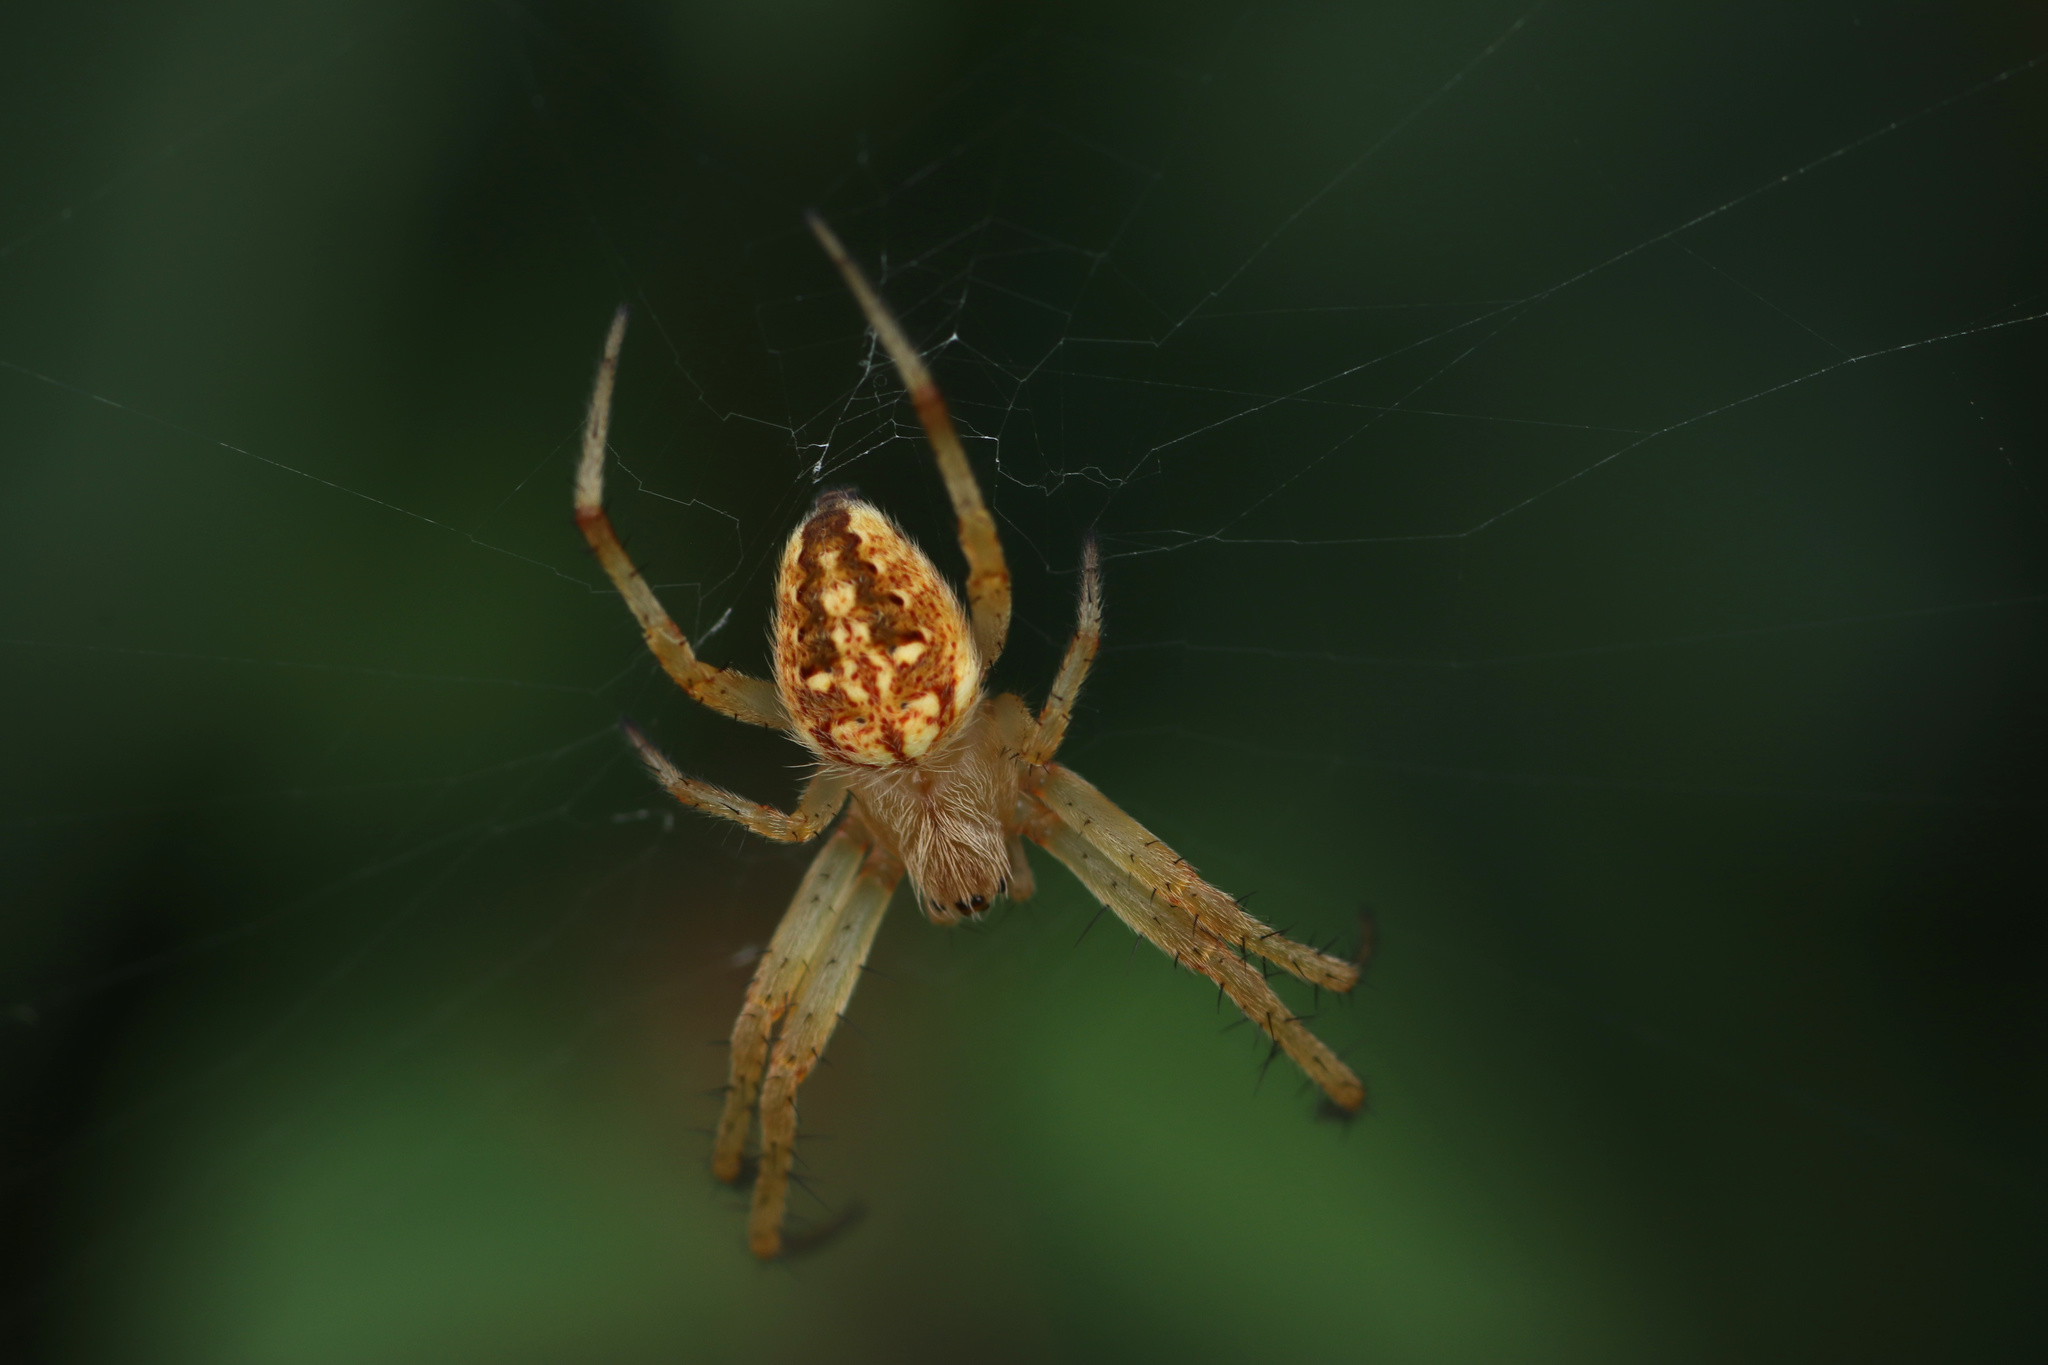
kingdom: Animalia
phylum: Arthropoda
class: Arachnida
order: Araneae
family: Araneidae
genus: Neoscona
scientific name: Neoscona arabesca
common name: Orb weavers
